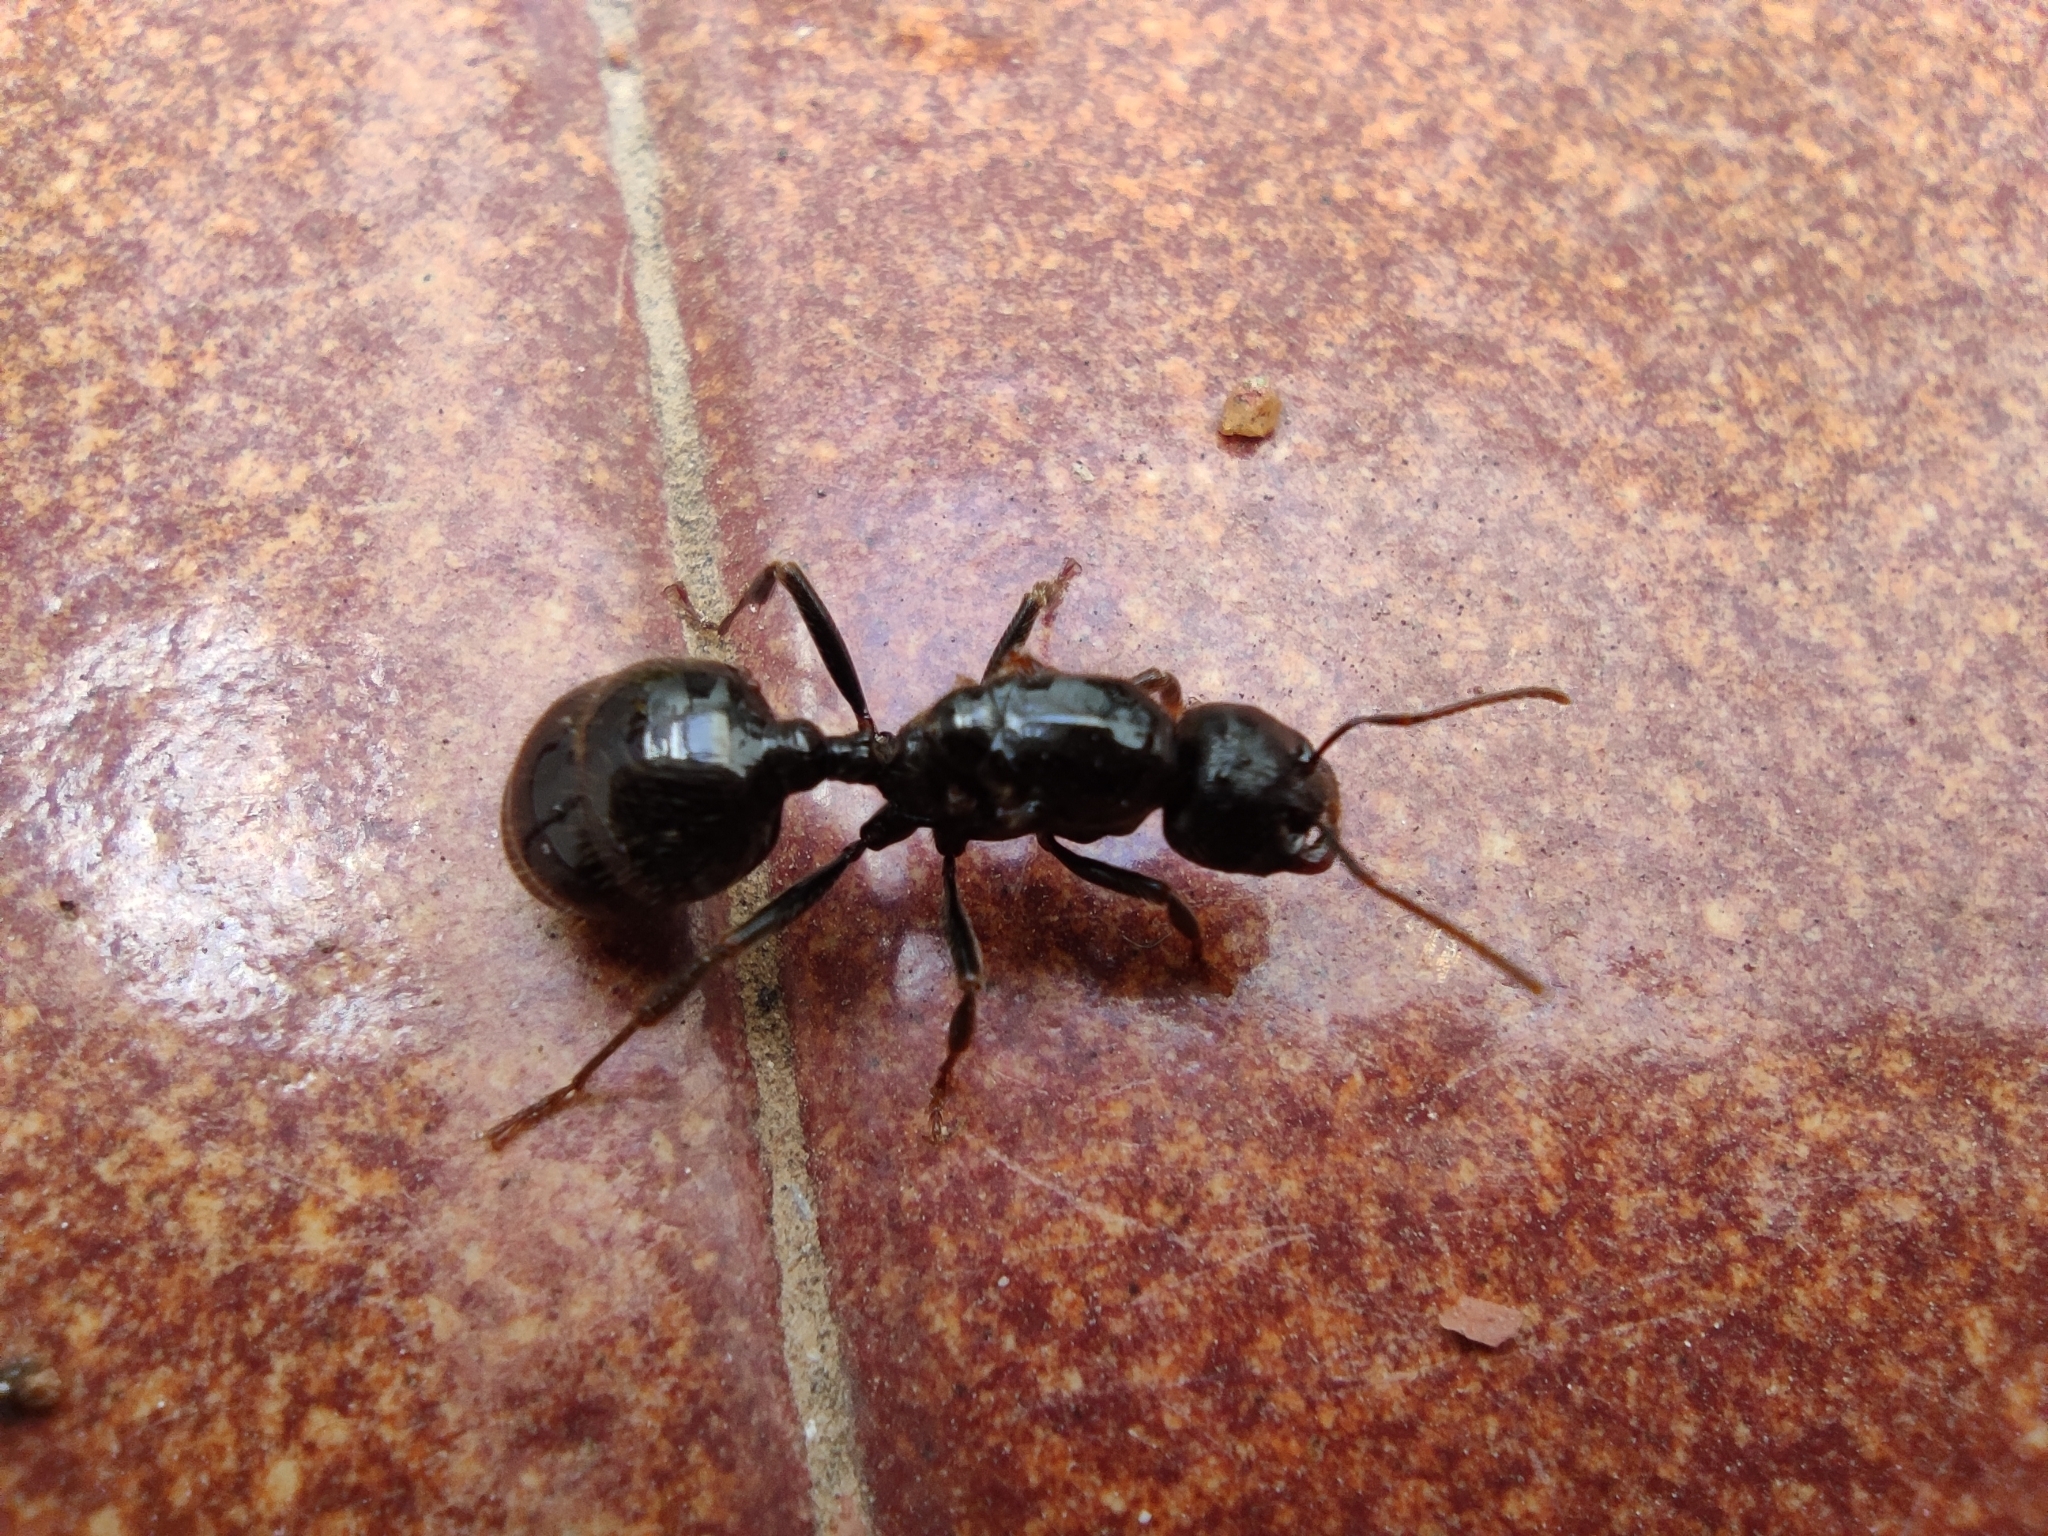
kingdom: Animalia
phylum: Arthropoda
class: Insecta
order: Hymenoptera
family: Formicidae
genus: Messor
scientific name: Messor barbarus
